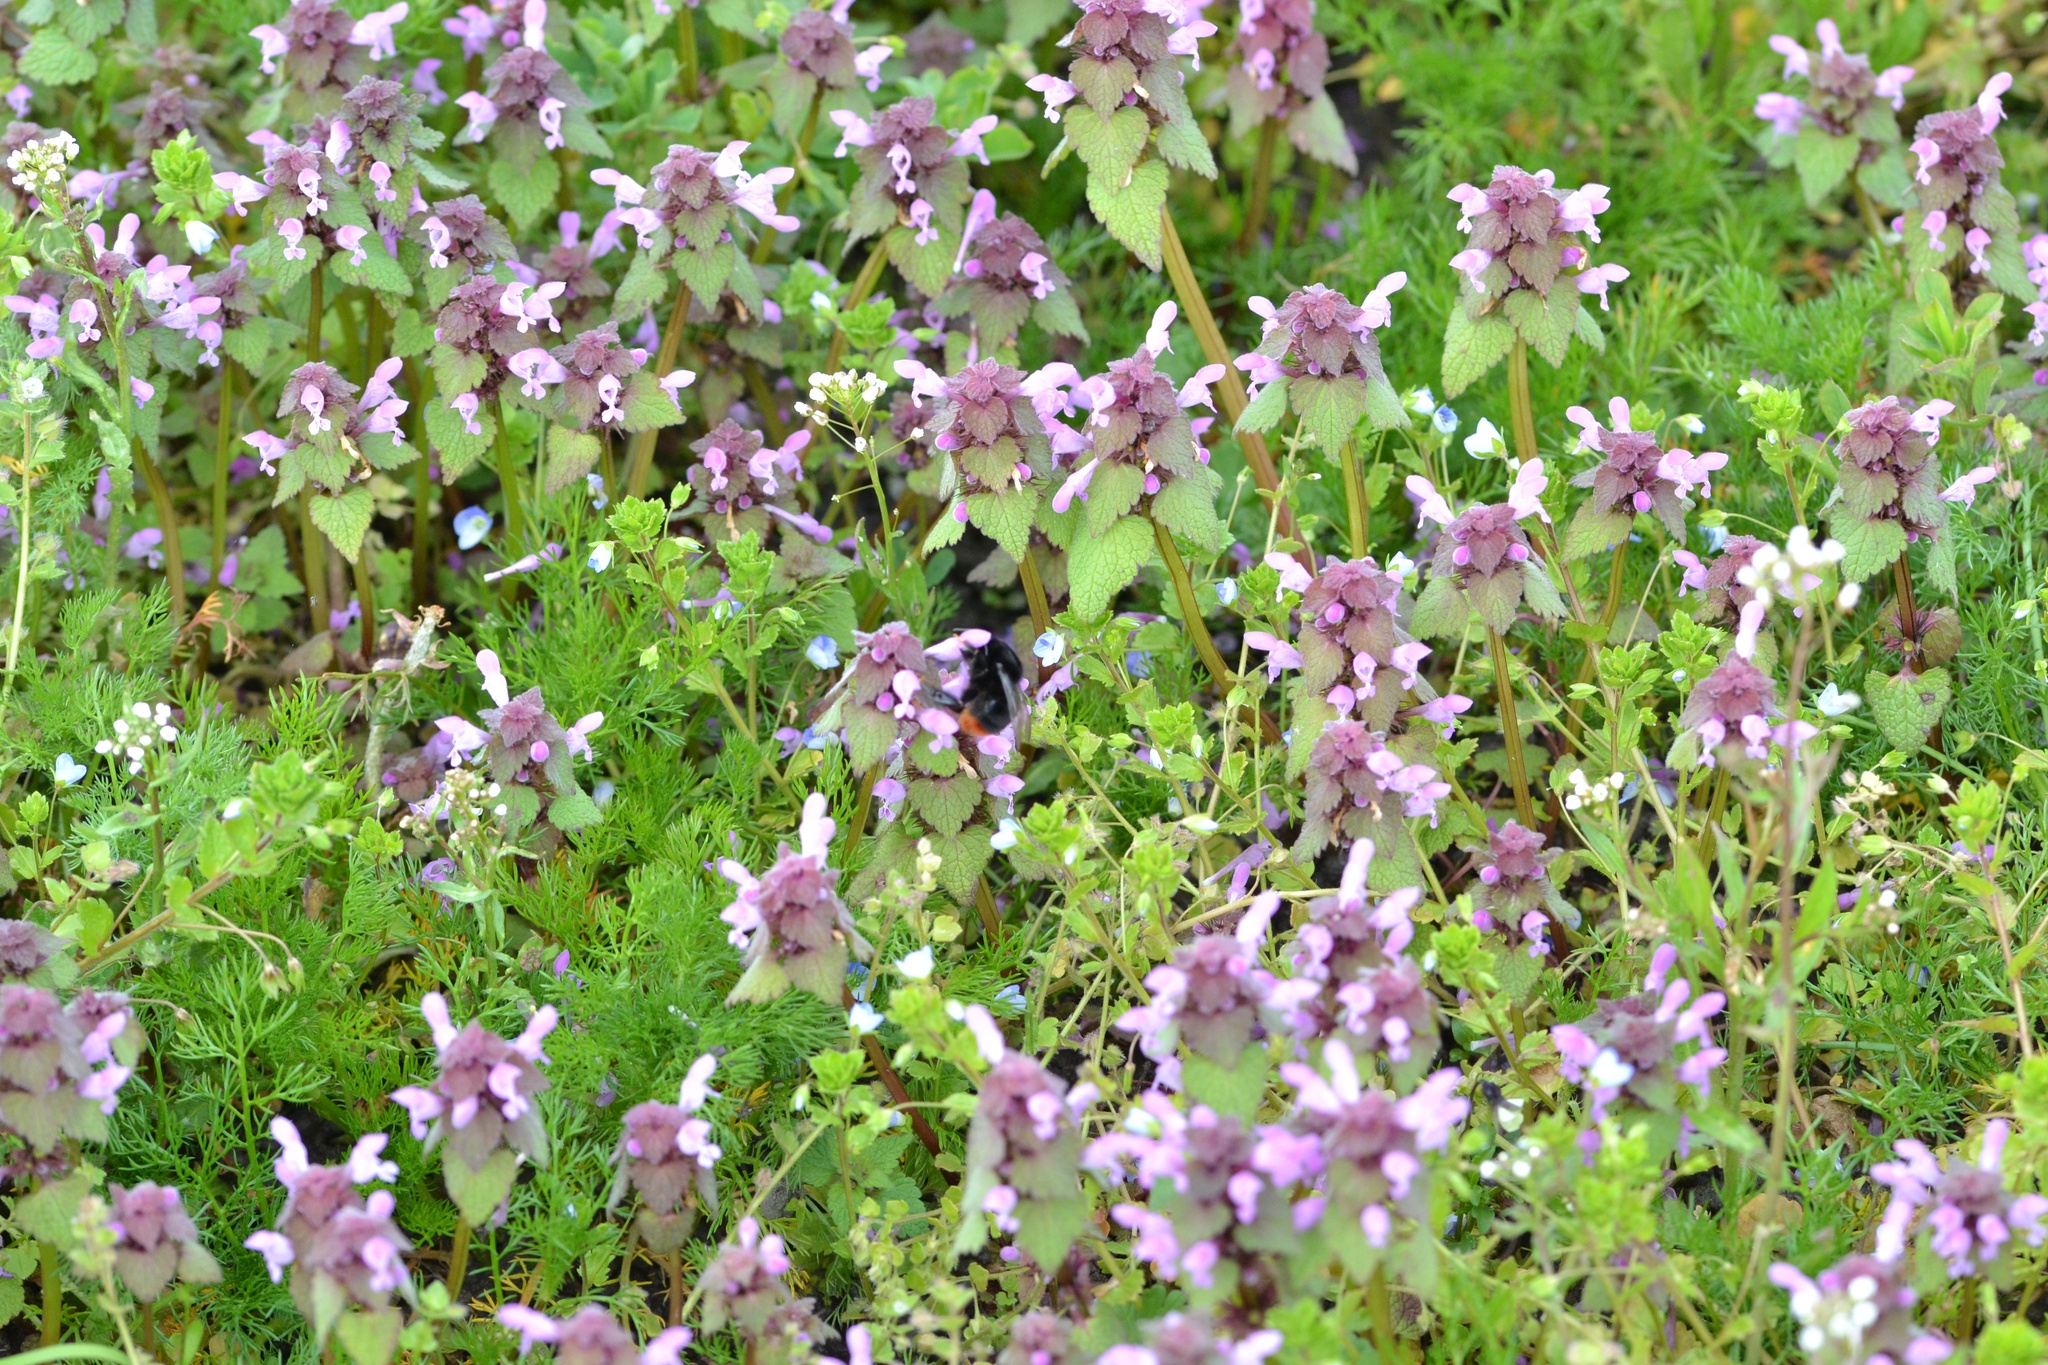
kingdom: Plantae
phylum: Tracheophyta
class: Magnoliopsida
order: Lamiales
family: Lamiaceae
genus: Lamium
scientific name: Lamium purpureum
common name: Red dead-nettle
